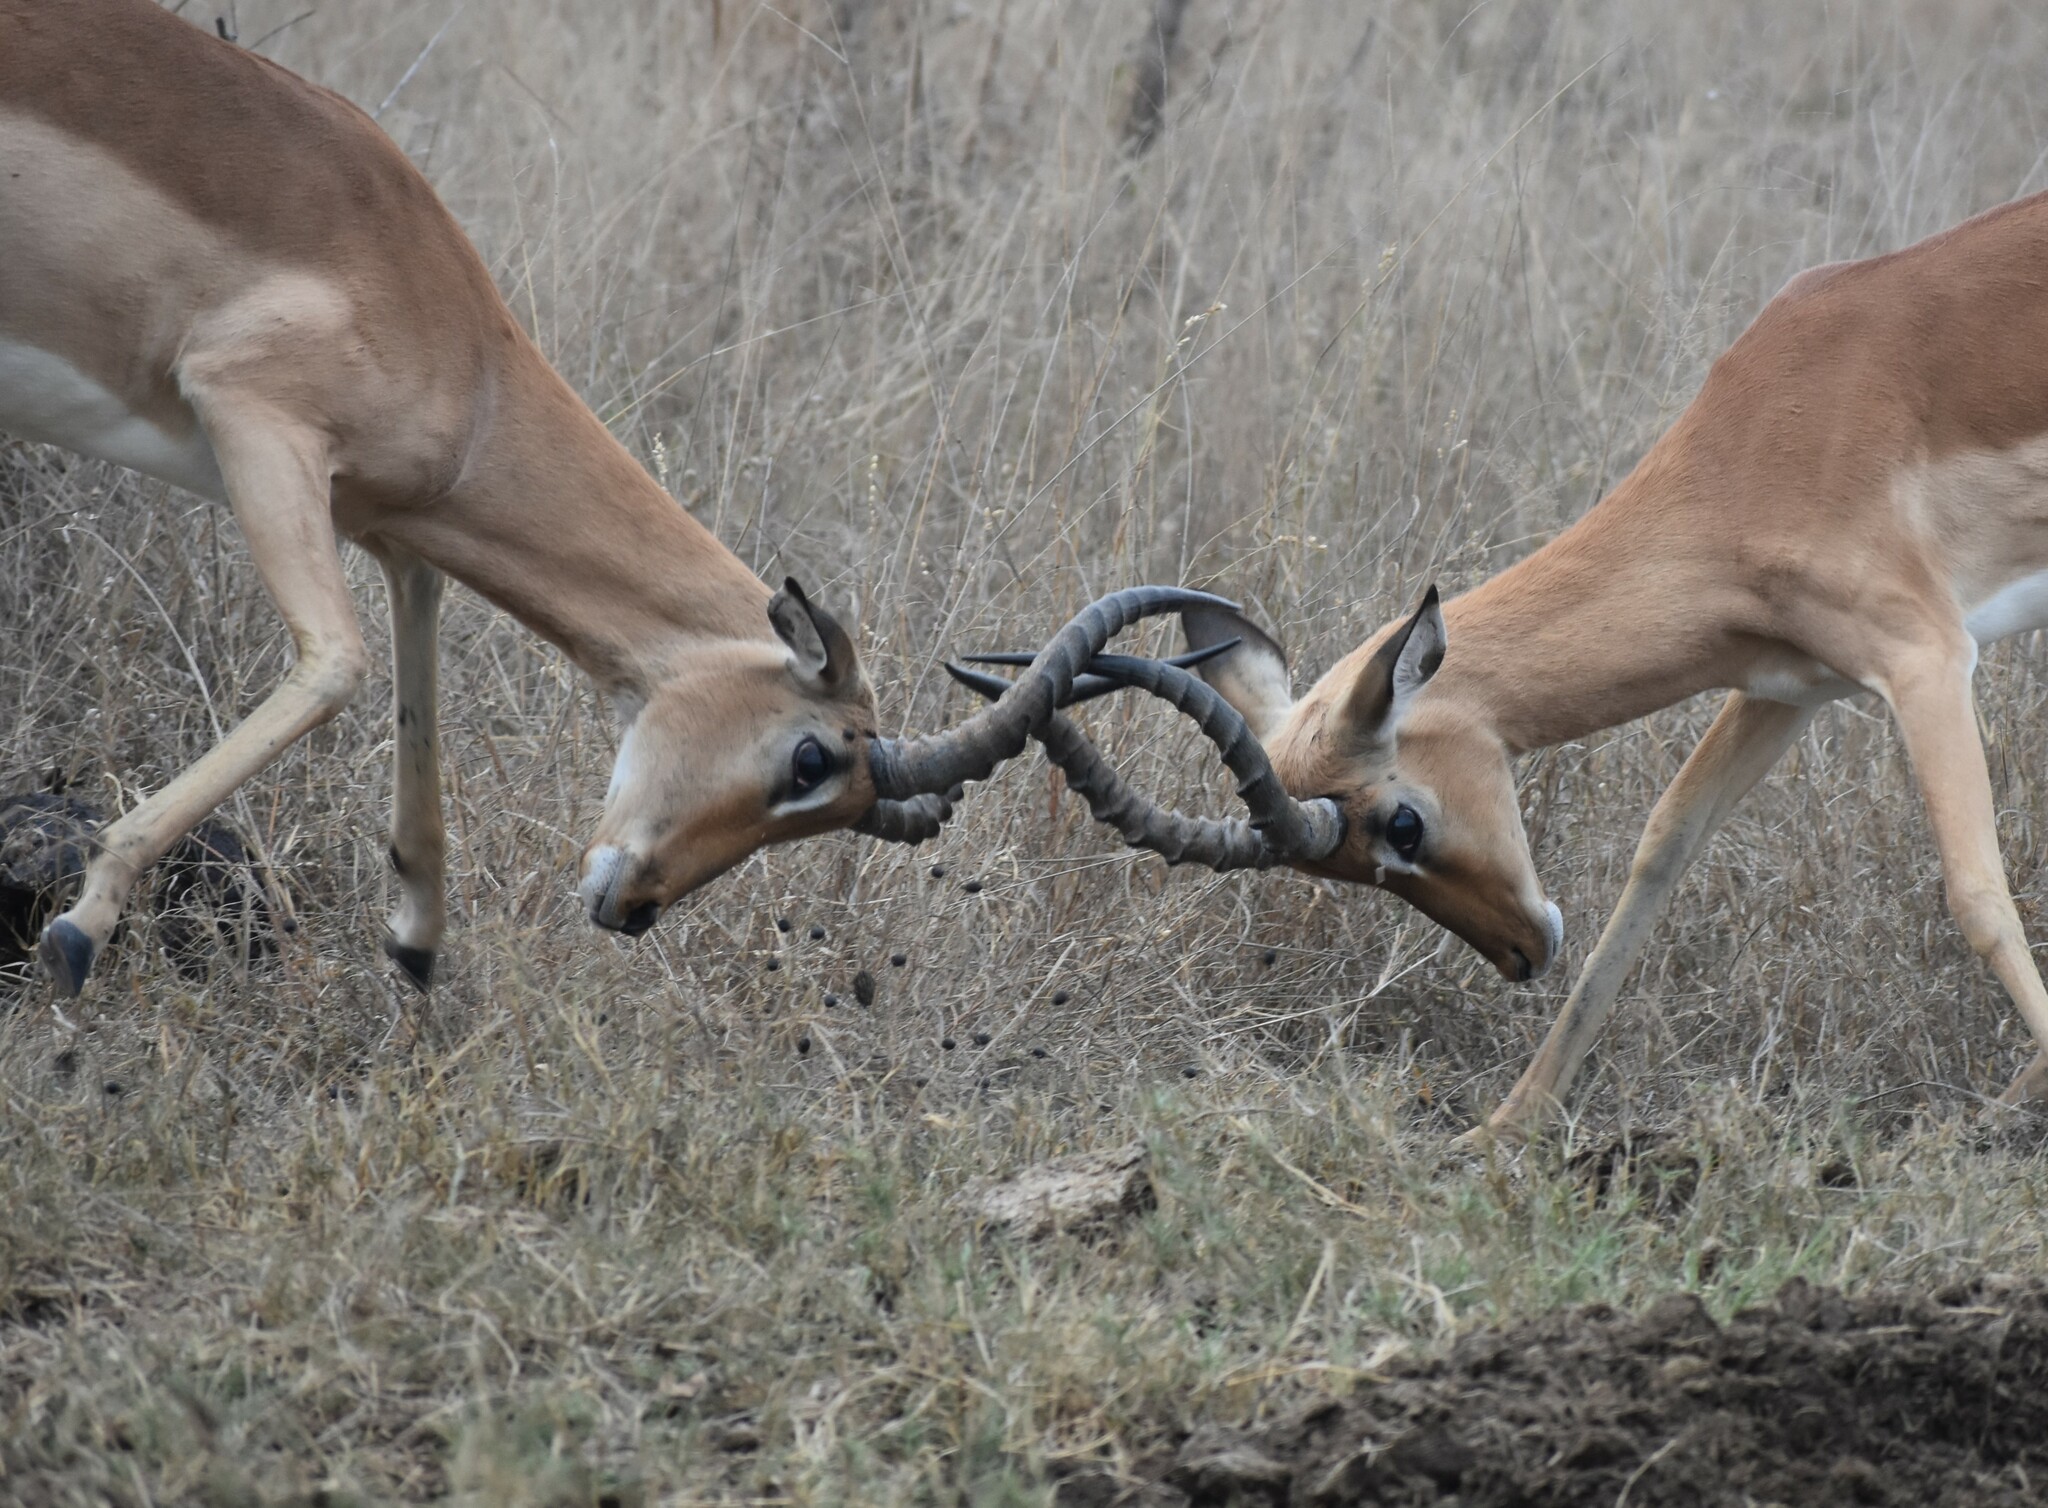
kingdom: Animalia
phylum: Chordata
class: Mammalia
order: Artiodactyla
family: Bovidae
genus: Aepyceros
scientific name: Aepyceros melampus
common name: Impala
